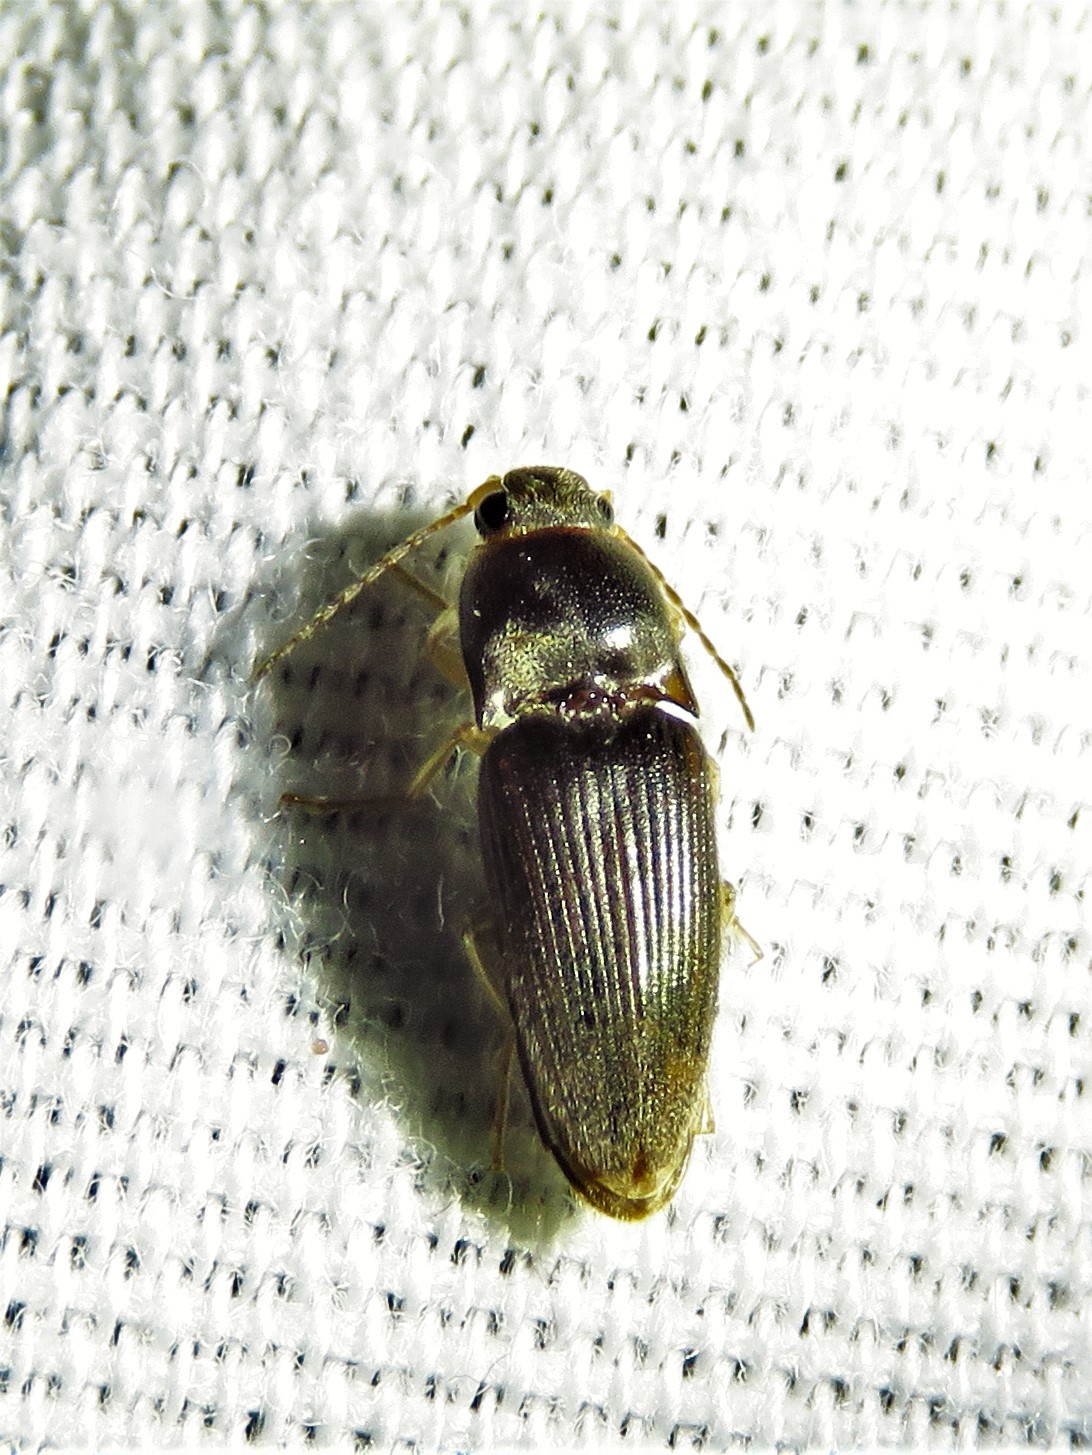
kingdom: Animalia
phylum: Arthropoda
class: Insecta
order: Coleoptera
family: Elateridae
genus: Monocrepidius
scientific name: Monocrepidius
